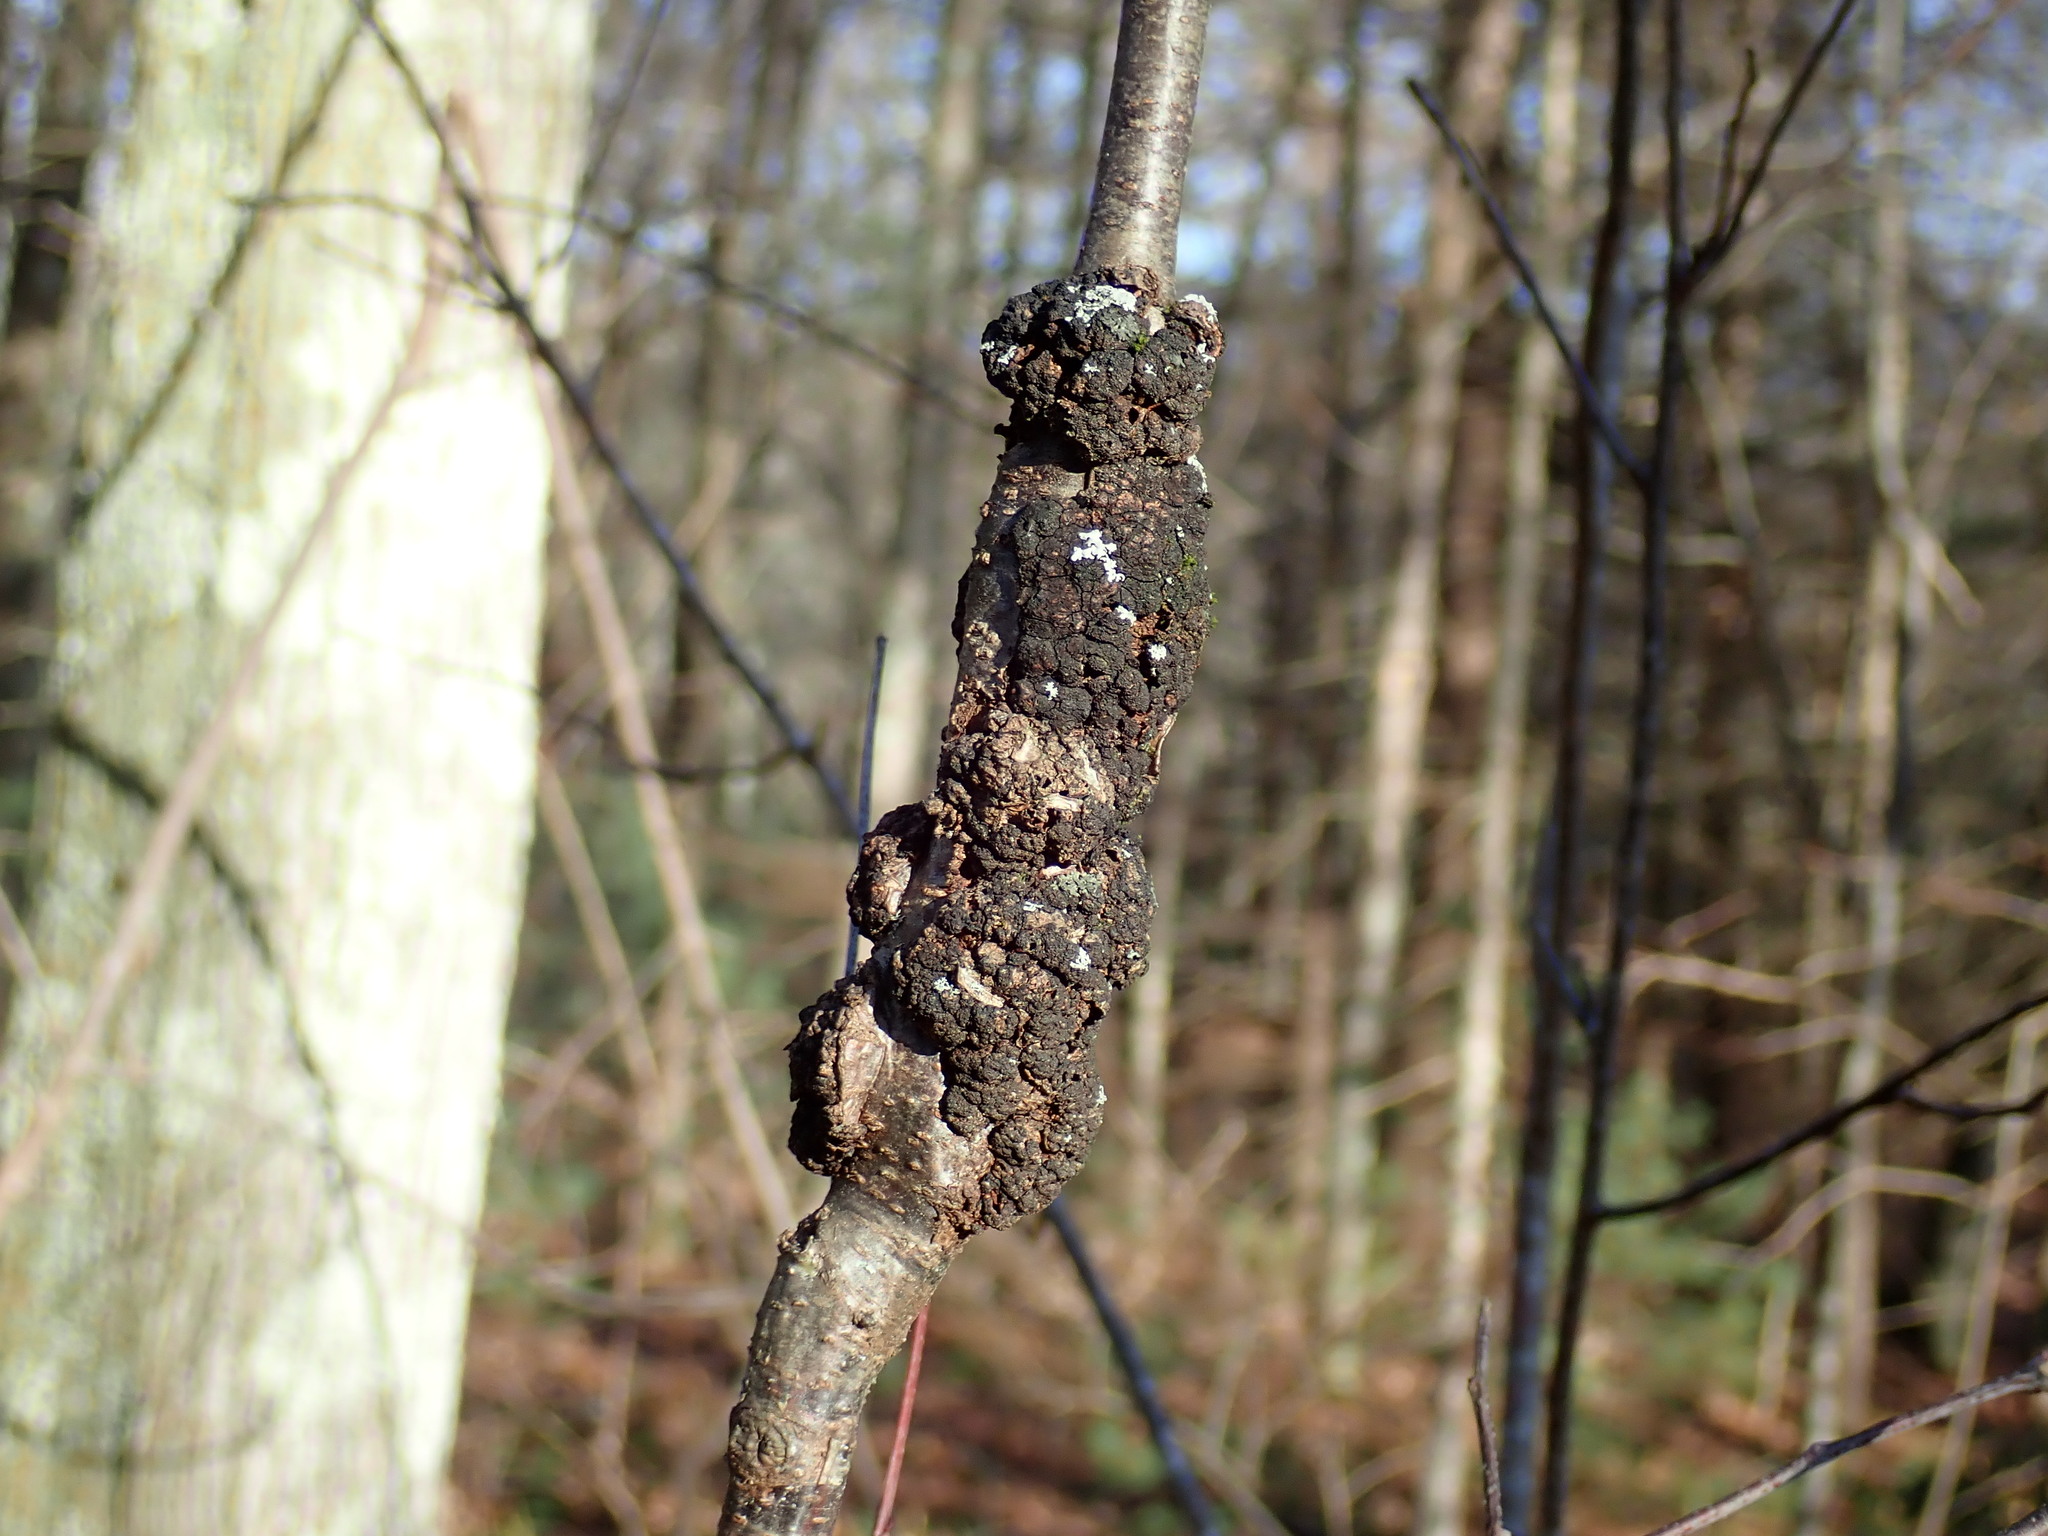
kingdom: Fungi
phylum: Ascomycota
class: Dothideomycetes
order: Venturiales
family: Venturiaceae
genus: Apiosporina
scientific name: Apiosporina morbosa
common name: Black knot
